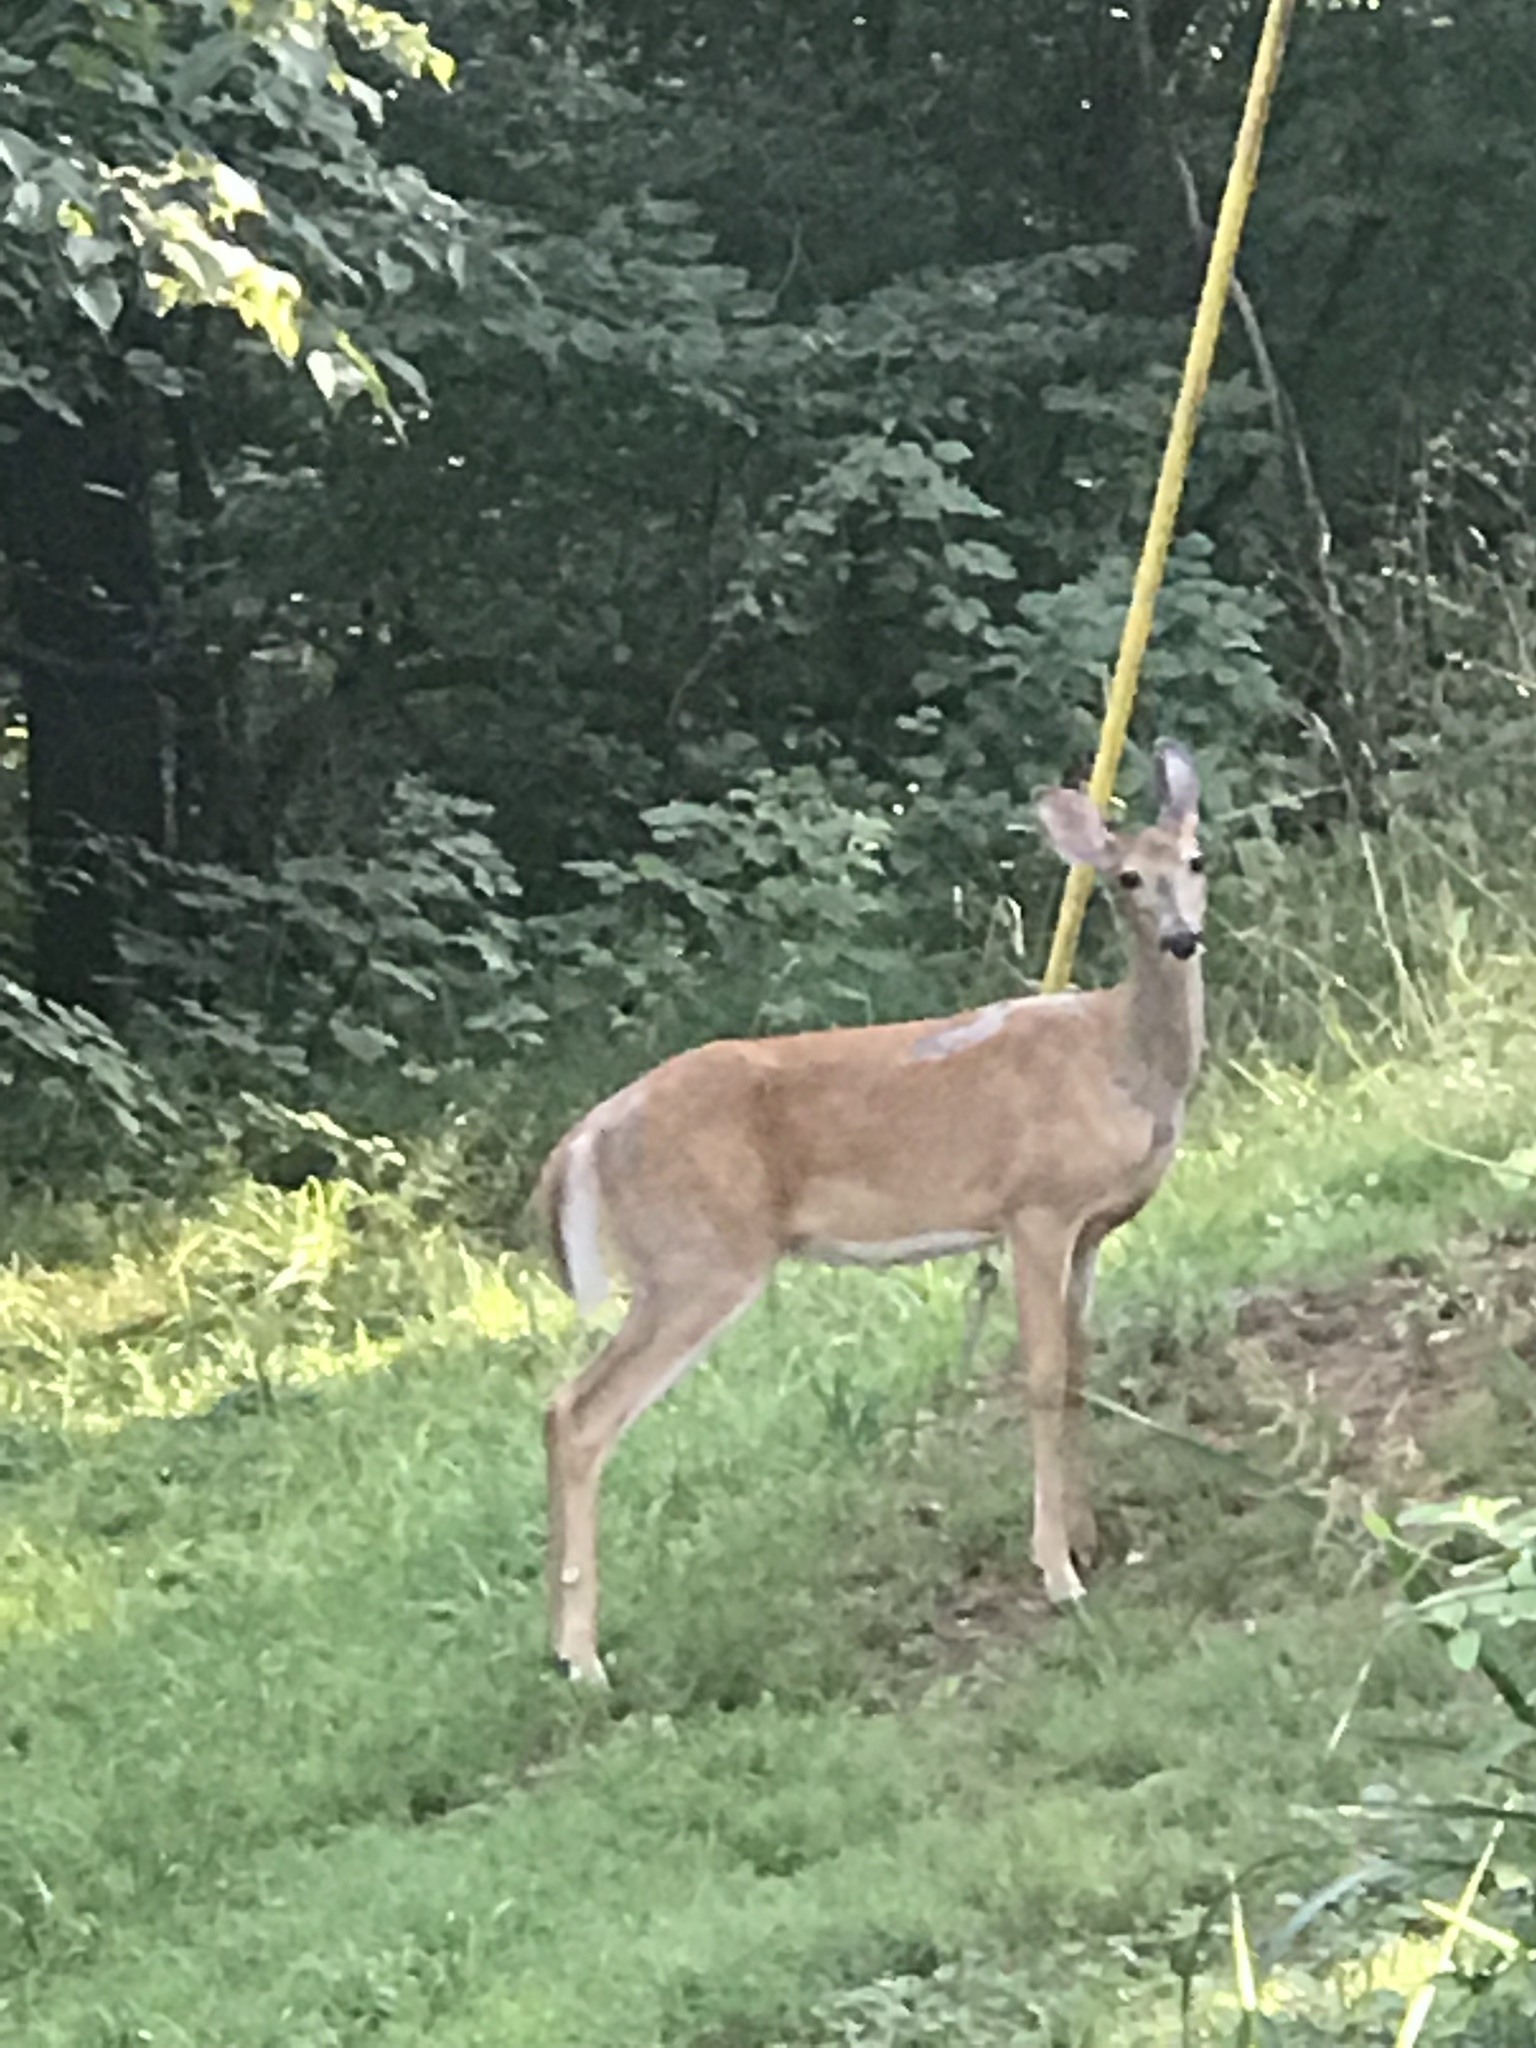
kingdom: Animalia
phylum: Chordata
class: Mammalia
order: Artiodactyla
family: Cervidae
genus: Odocoileus
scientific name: Odocoileus virginianus
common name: White-tailed deer
